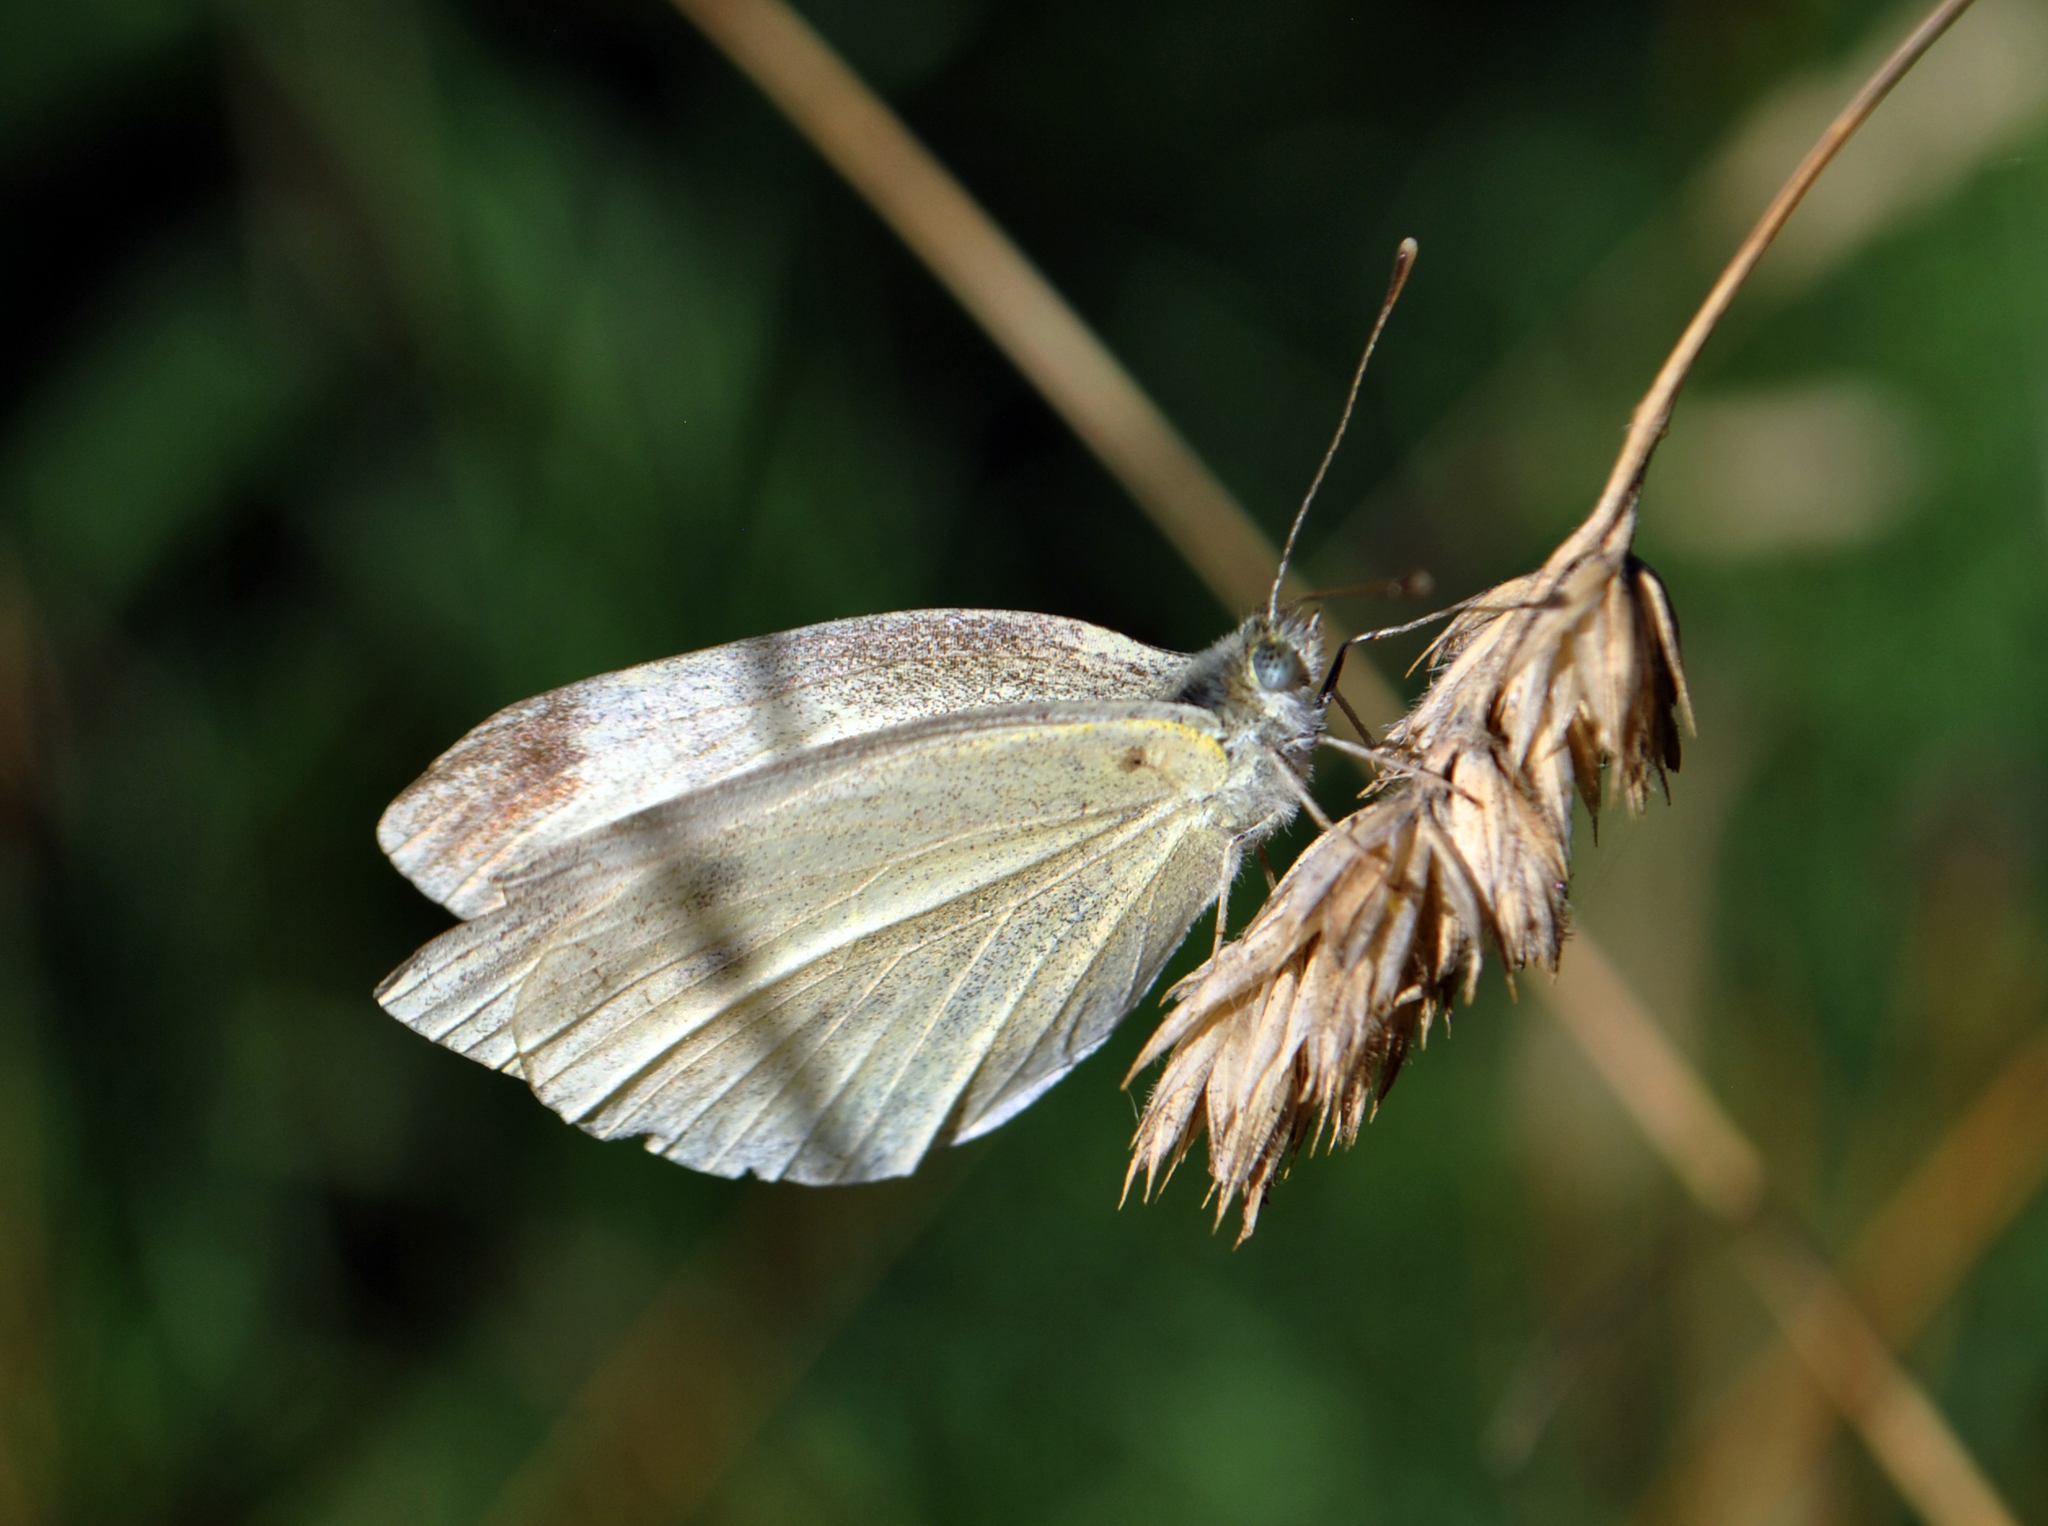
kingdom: Animalia
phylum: Arthropoda
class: Insecta
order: Lepidoptera
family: Pieridae
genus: Pieris
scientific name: Pieris rapae
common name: Small white
